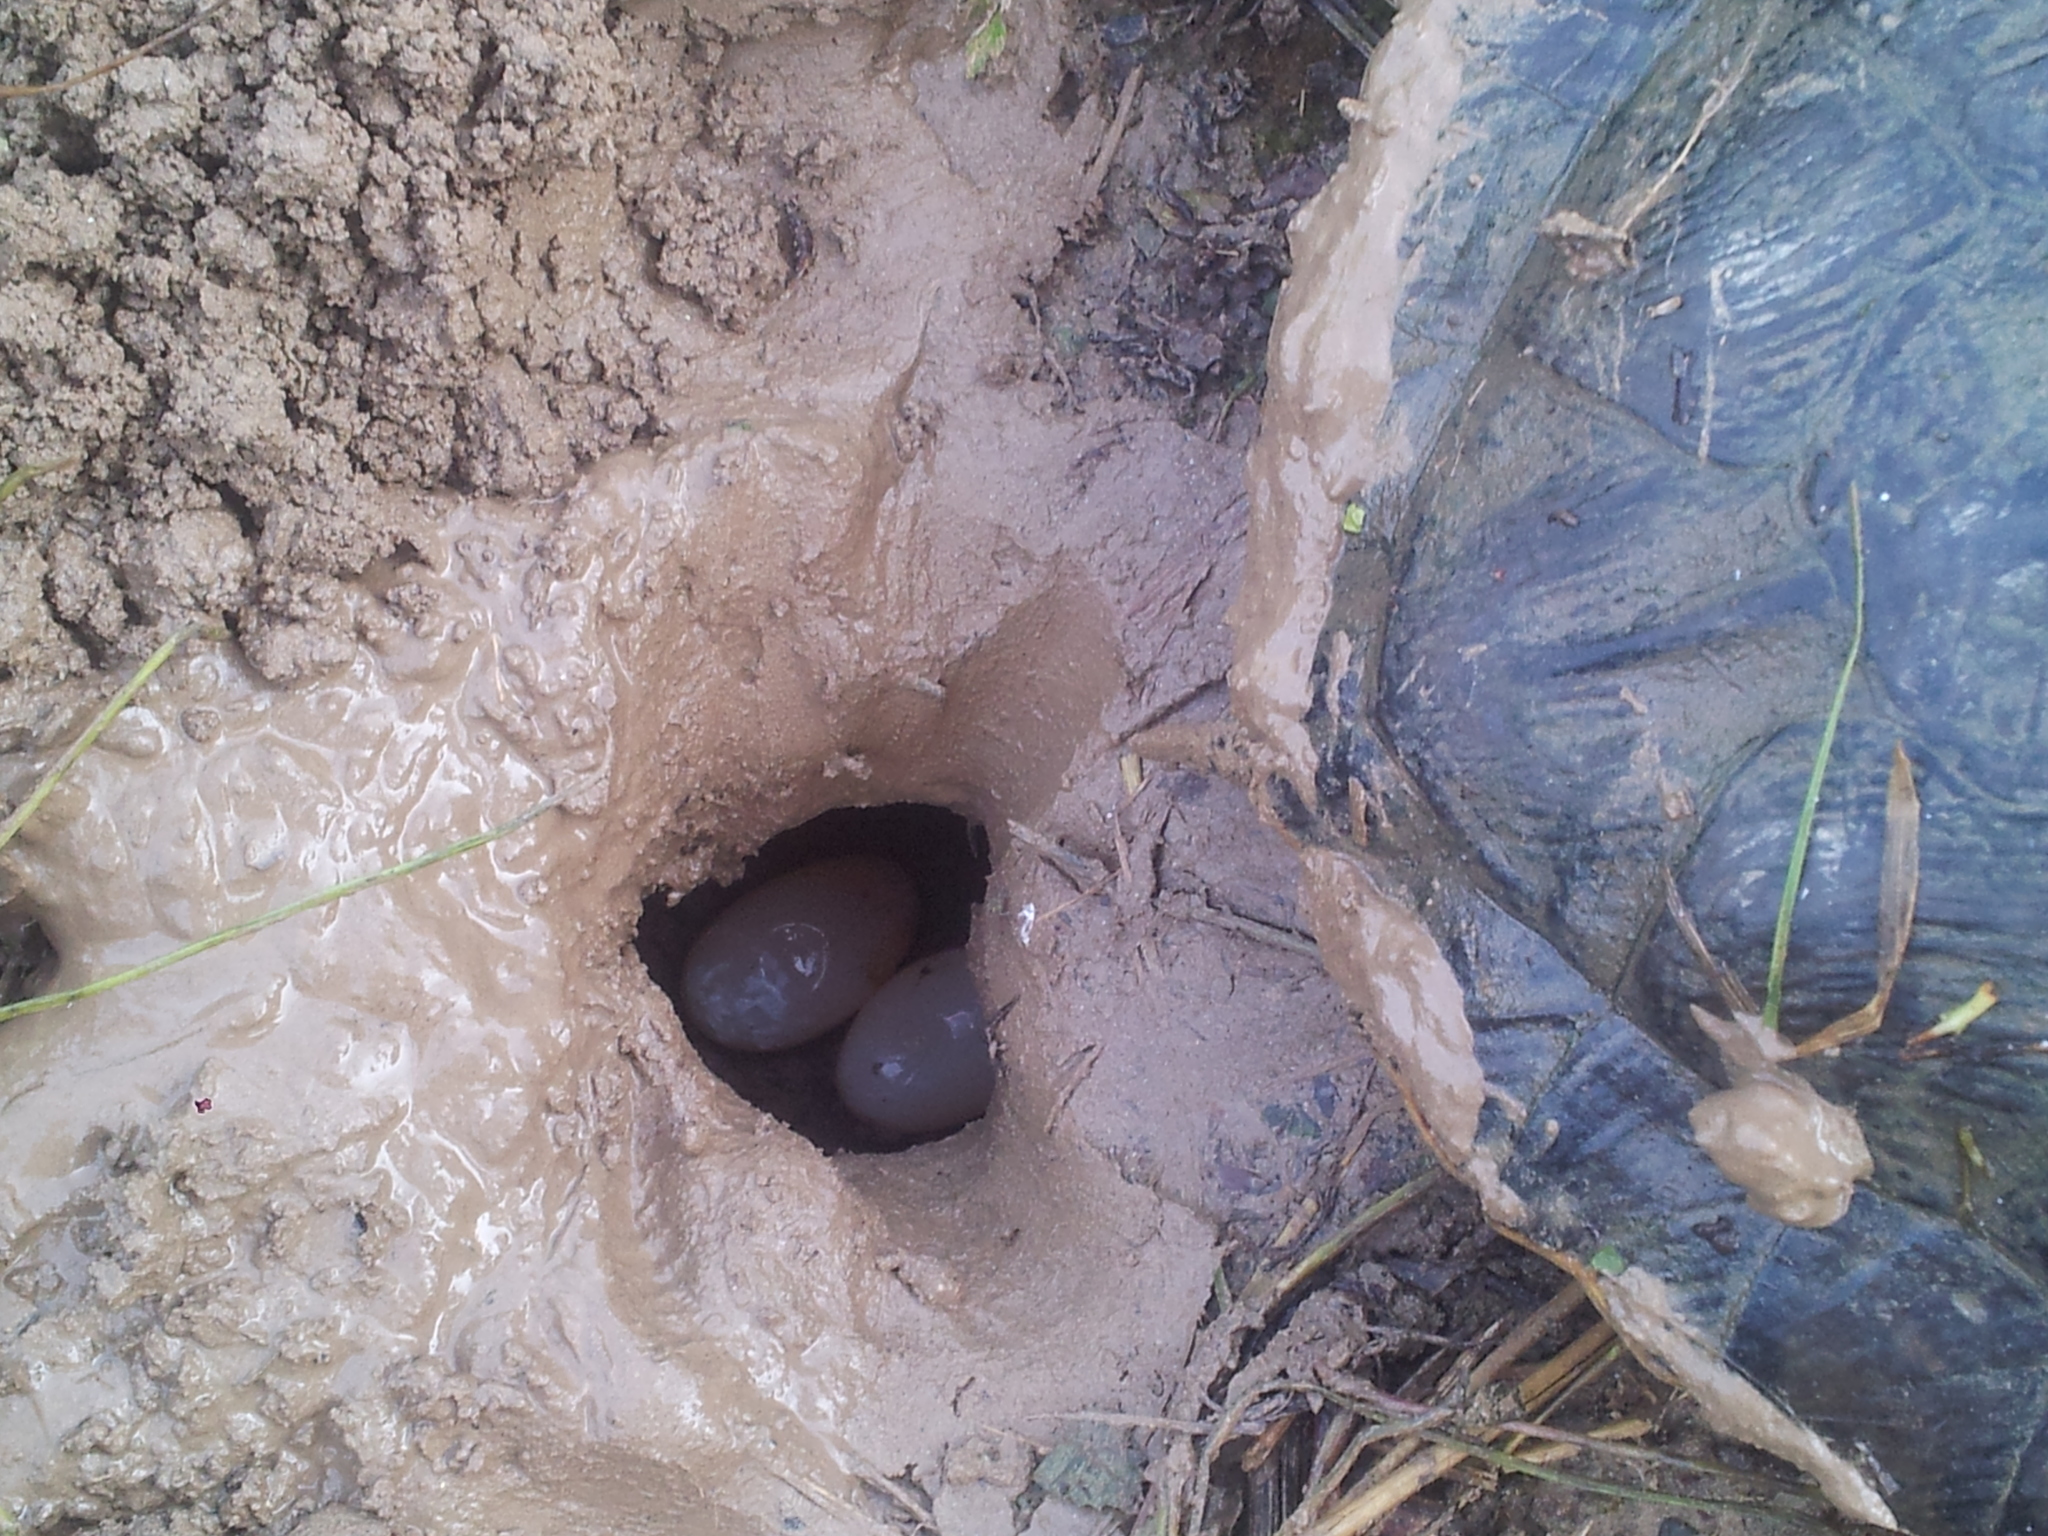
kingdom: Animalia
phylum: Chordata
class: Testudines
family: Emydidae
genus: Trachemys
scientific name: Trachemys scripta
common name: Slider
